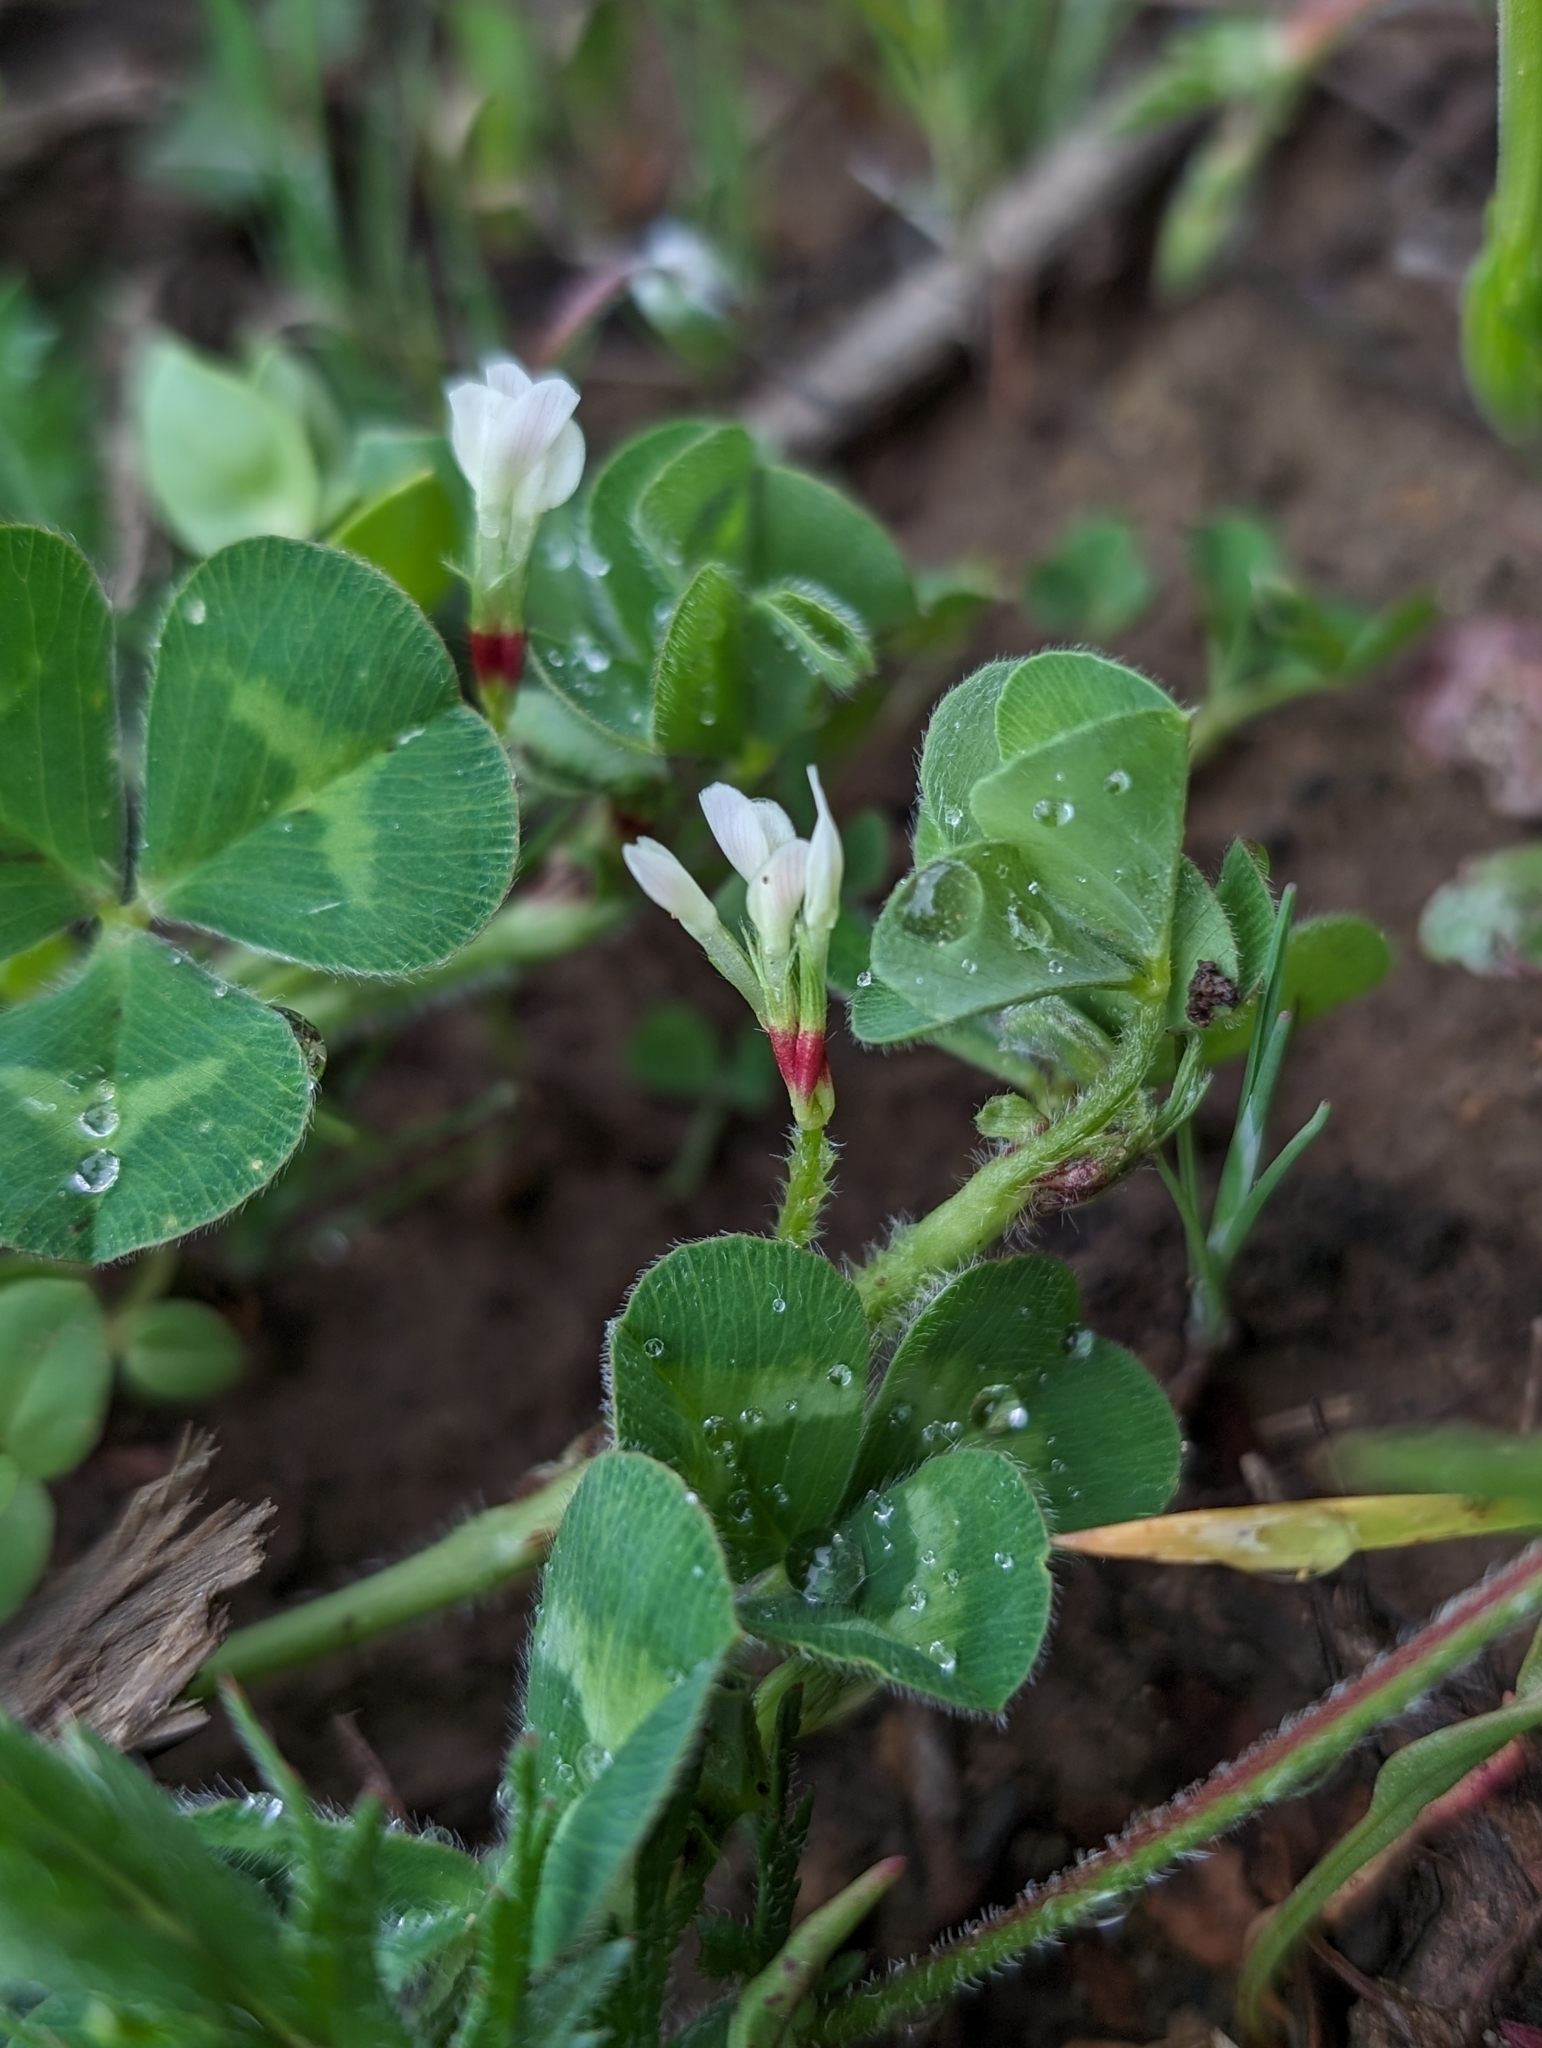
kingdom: Plantae
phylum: Tracheophyta
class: Magnoliopsida
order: Fabales
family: Fabaceae
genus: Trifolium
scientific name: Trifolium subterraneum
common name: Subterranean clover
